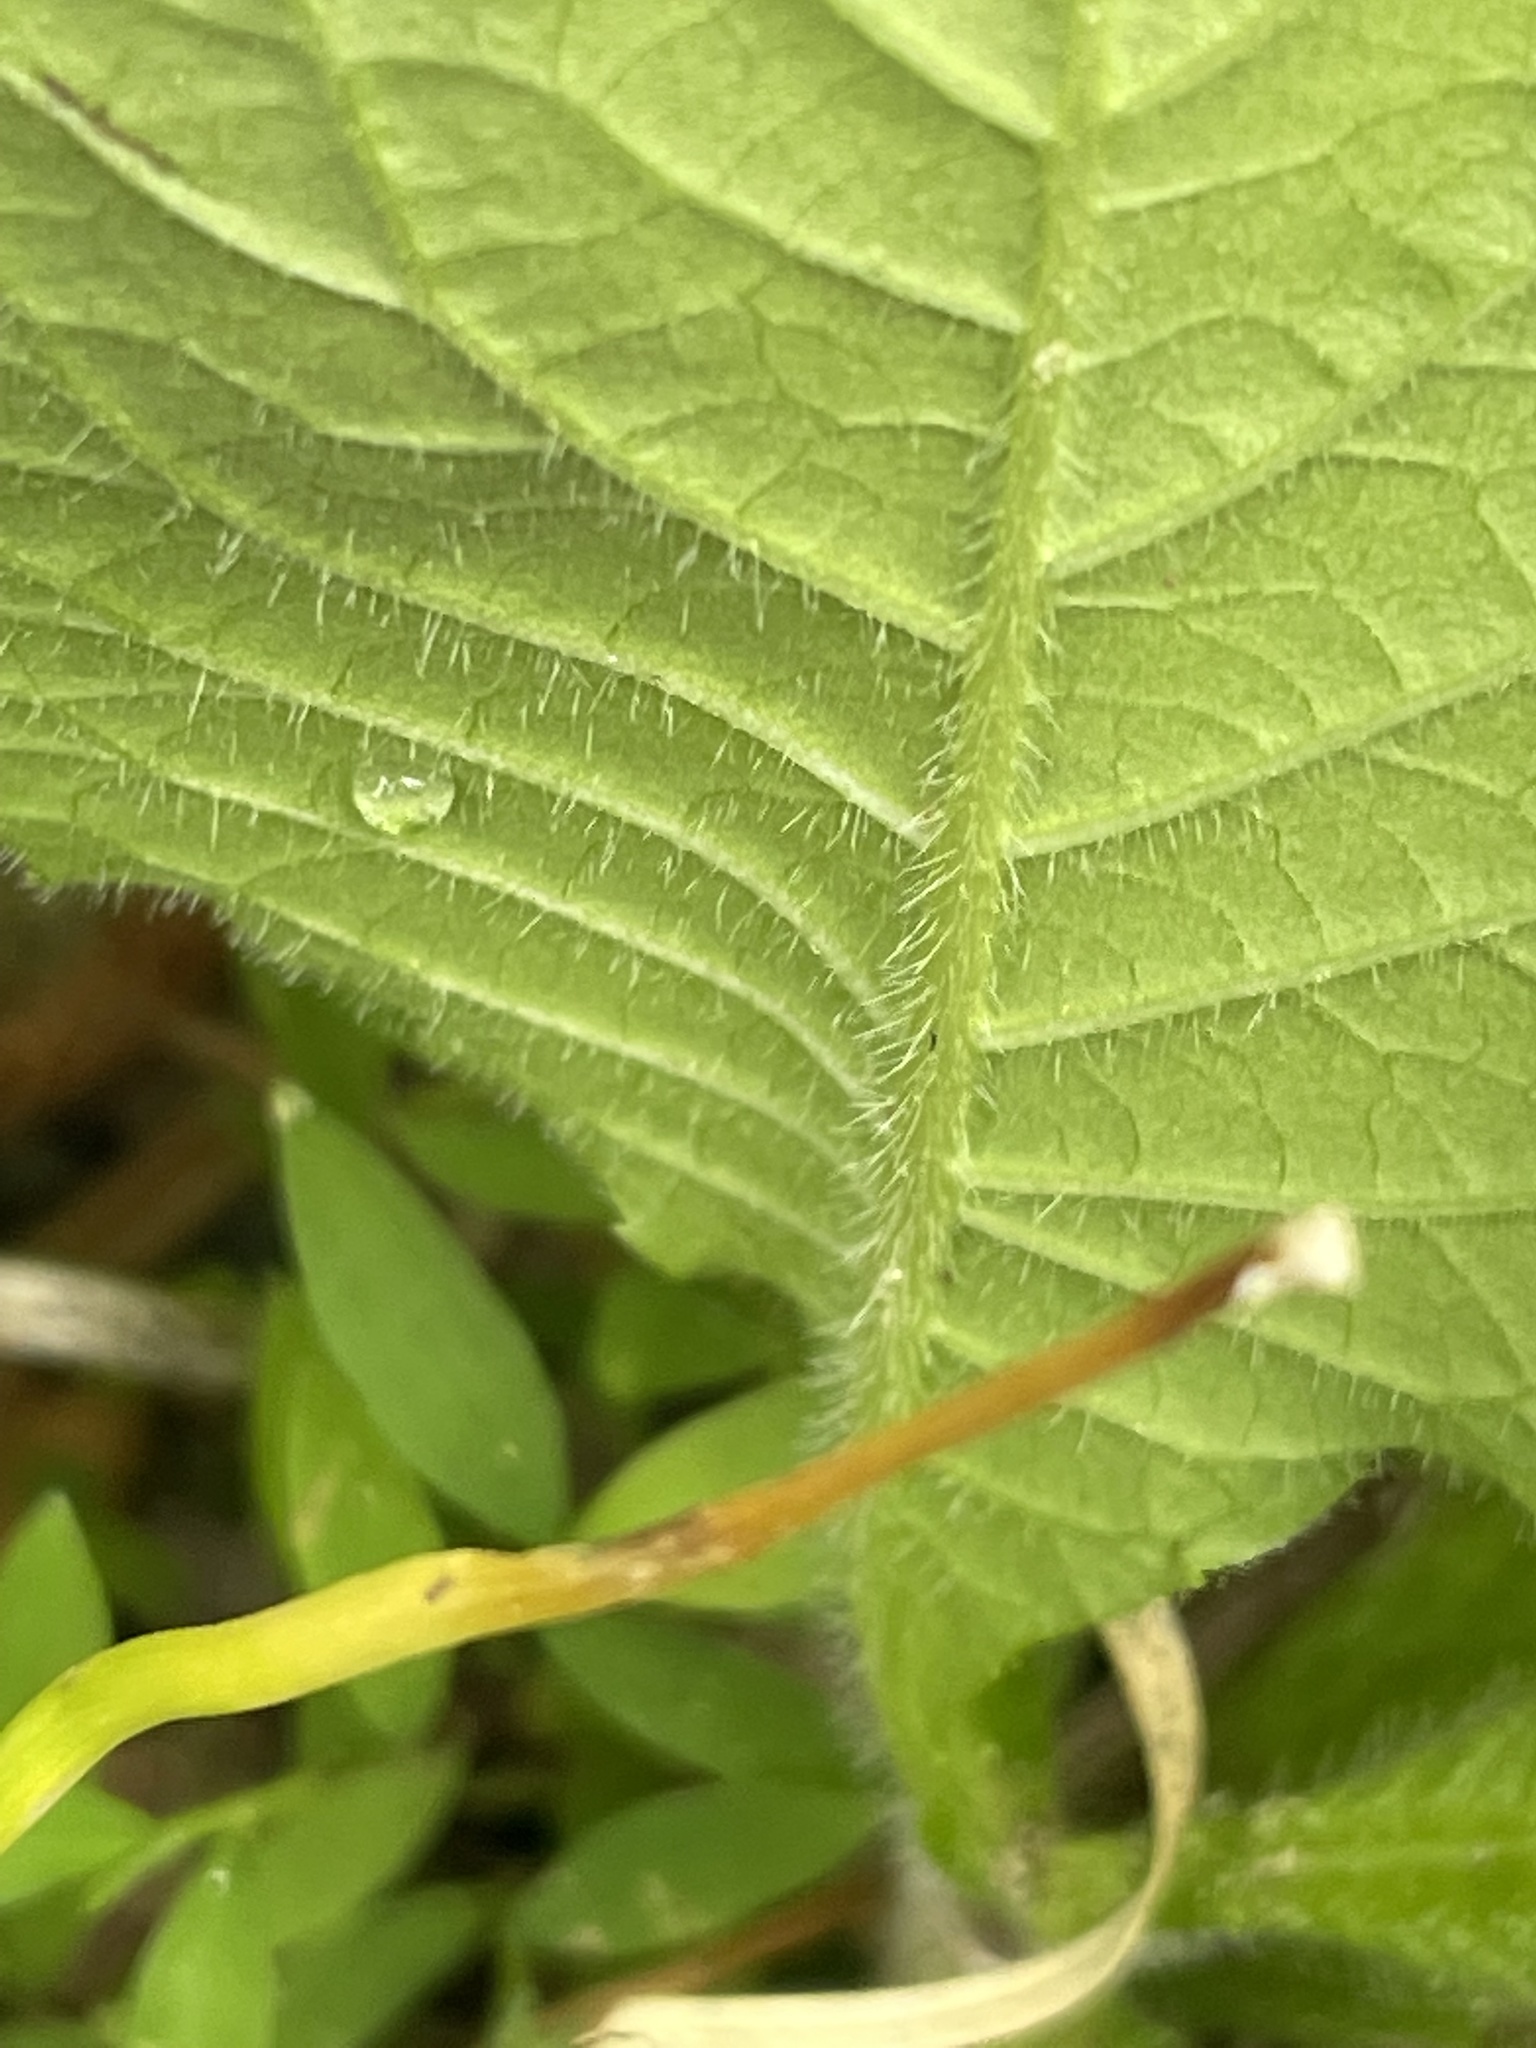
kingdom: Plantae
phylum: Tracheophyta
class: Magnoliopsida
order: Asterales
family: Asteraceae
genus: Elephantopus
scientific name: Elephantopus carolinianus
